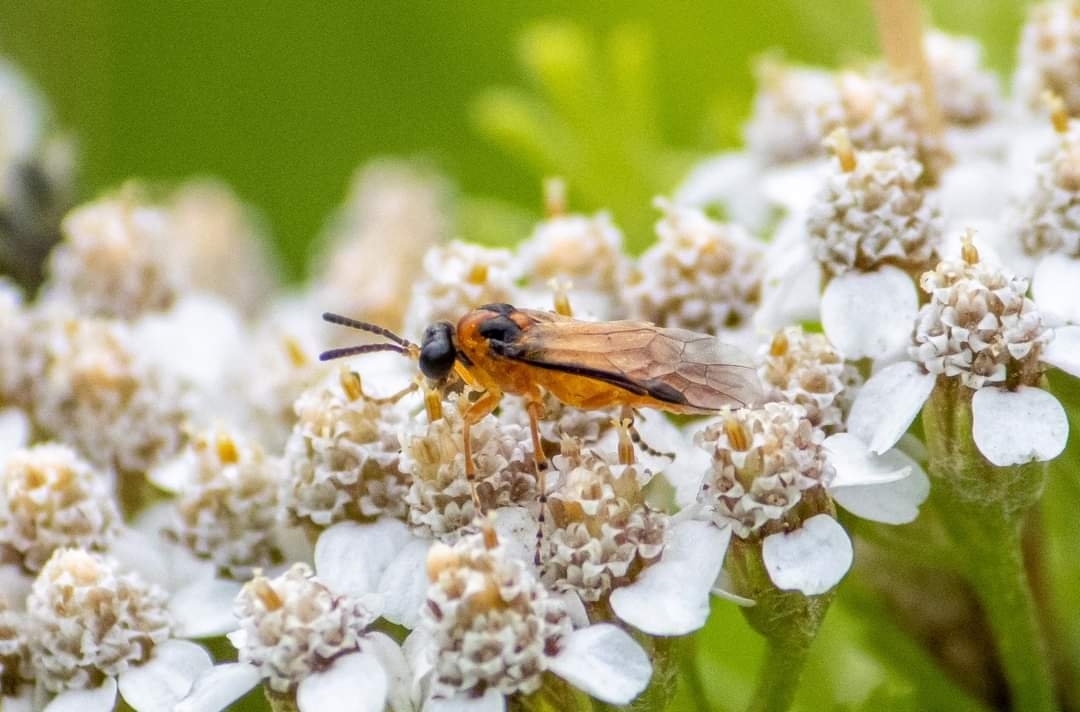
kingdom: Animalia
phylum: Arthropoda
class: Insecta
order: Hymenoptera
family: Tenthredinidae
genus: Athalia
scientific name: Athalia rosae
